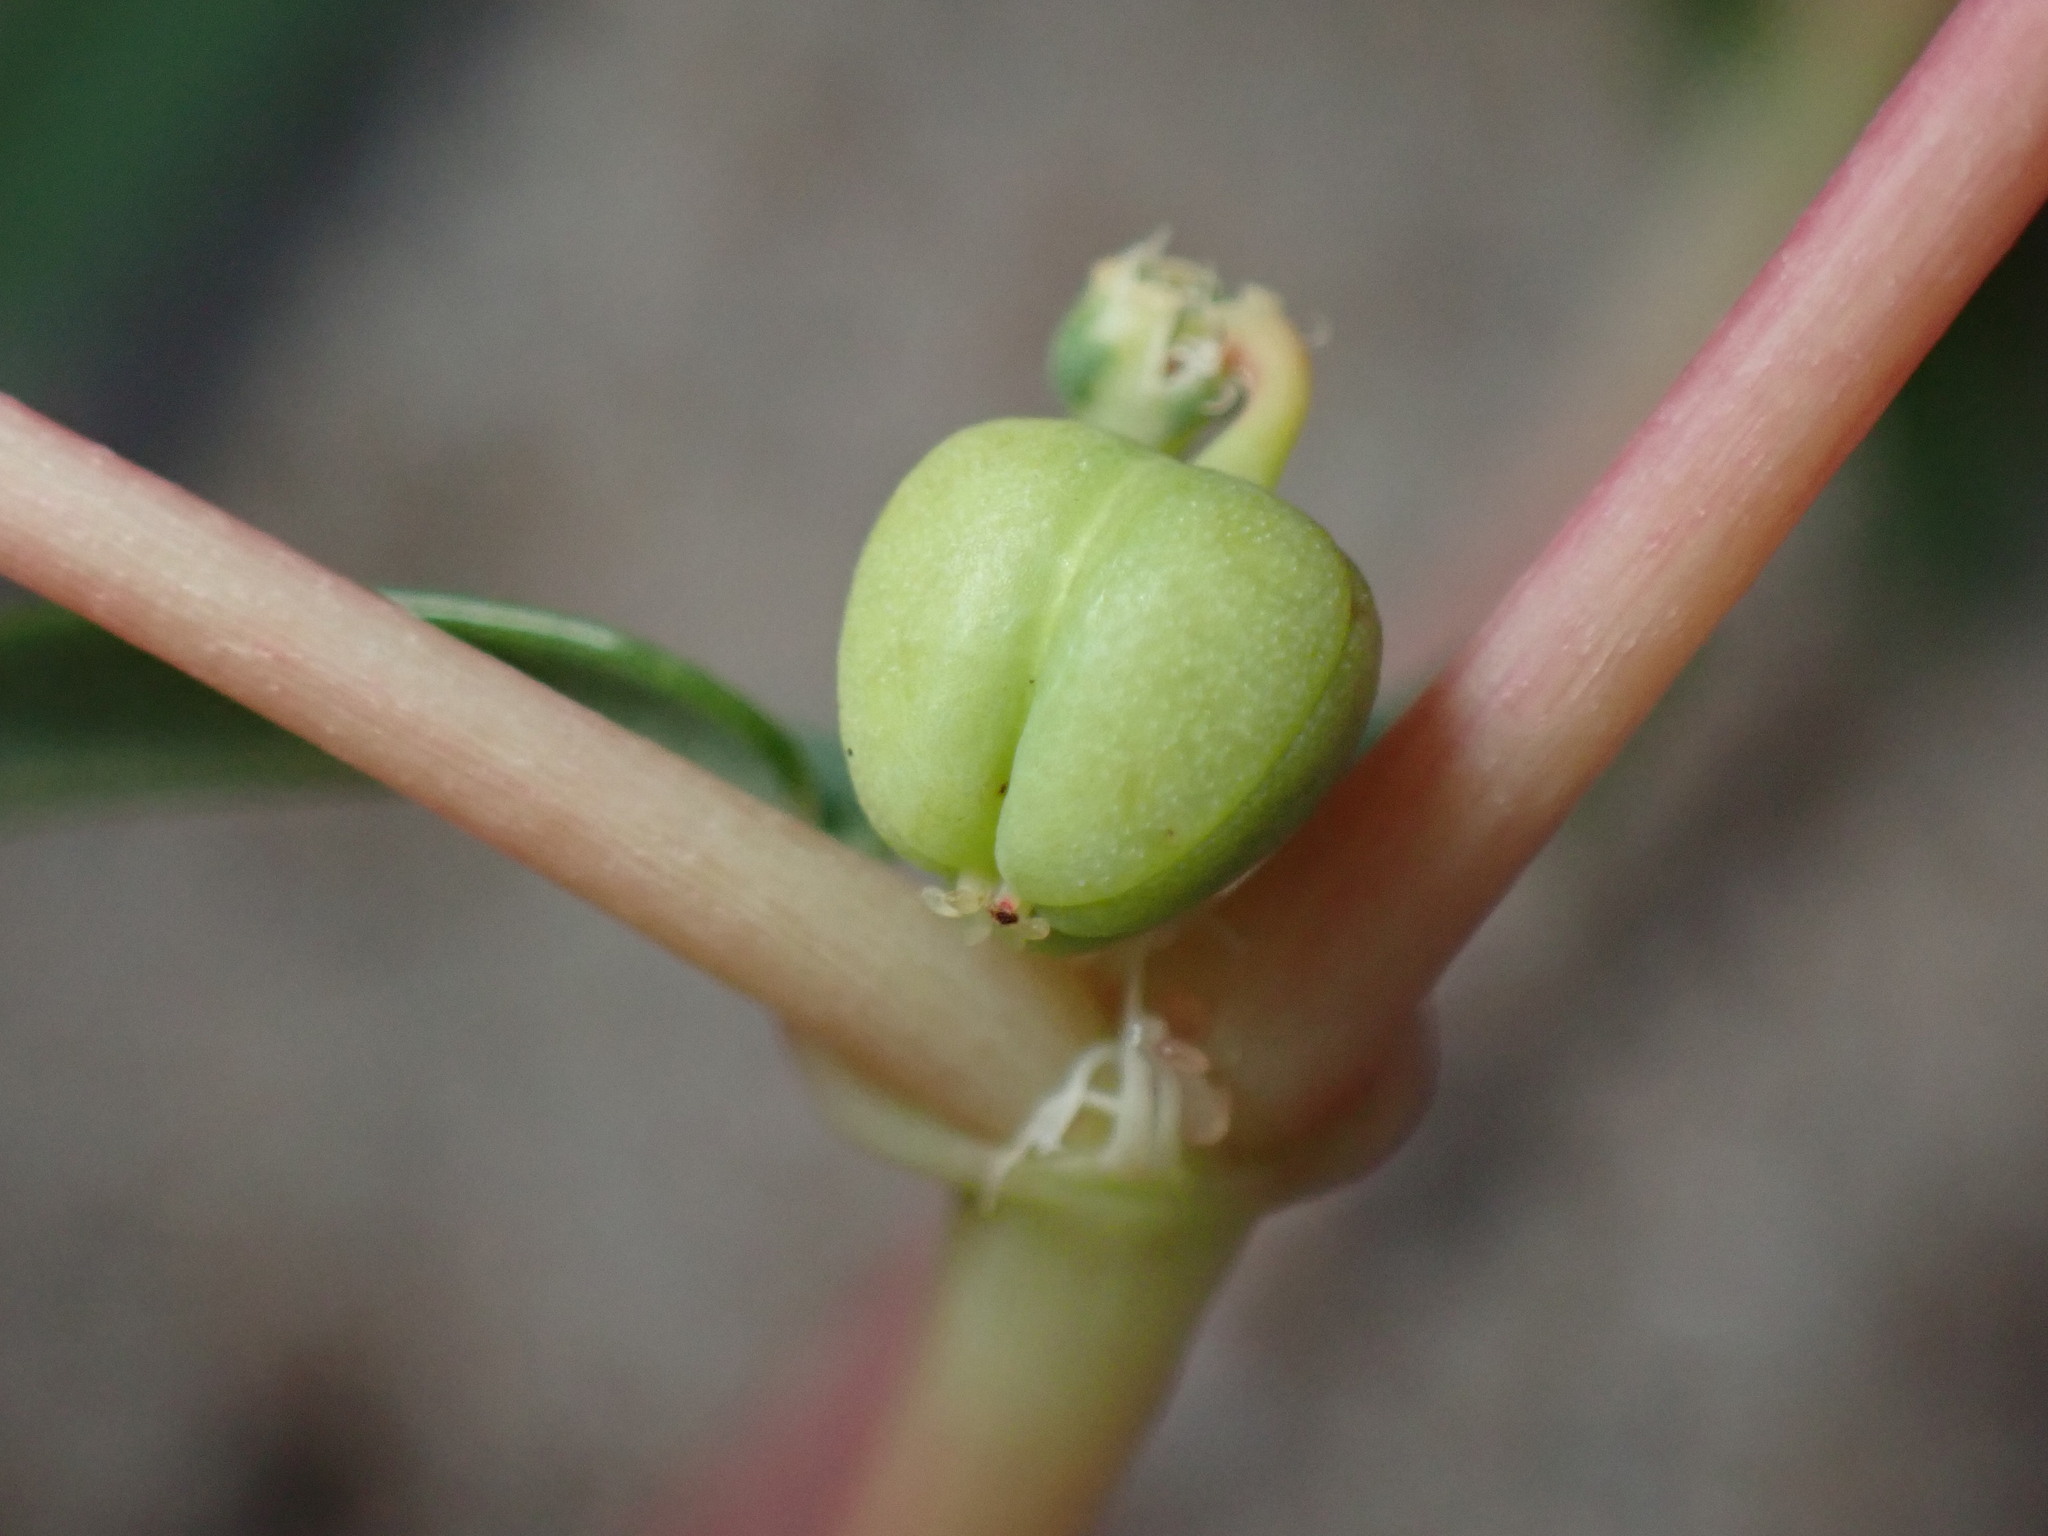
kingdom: Plantae
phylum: Tracheophyta
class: Magnoliopsida
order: Malpighiales
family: Euphorbiaceae
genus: Euphorbia
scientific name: Euphorbia polygonifolia
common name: Knotweed spurge
